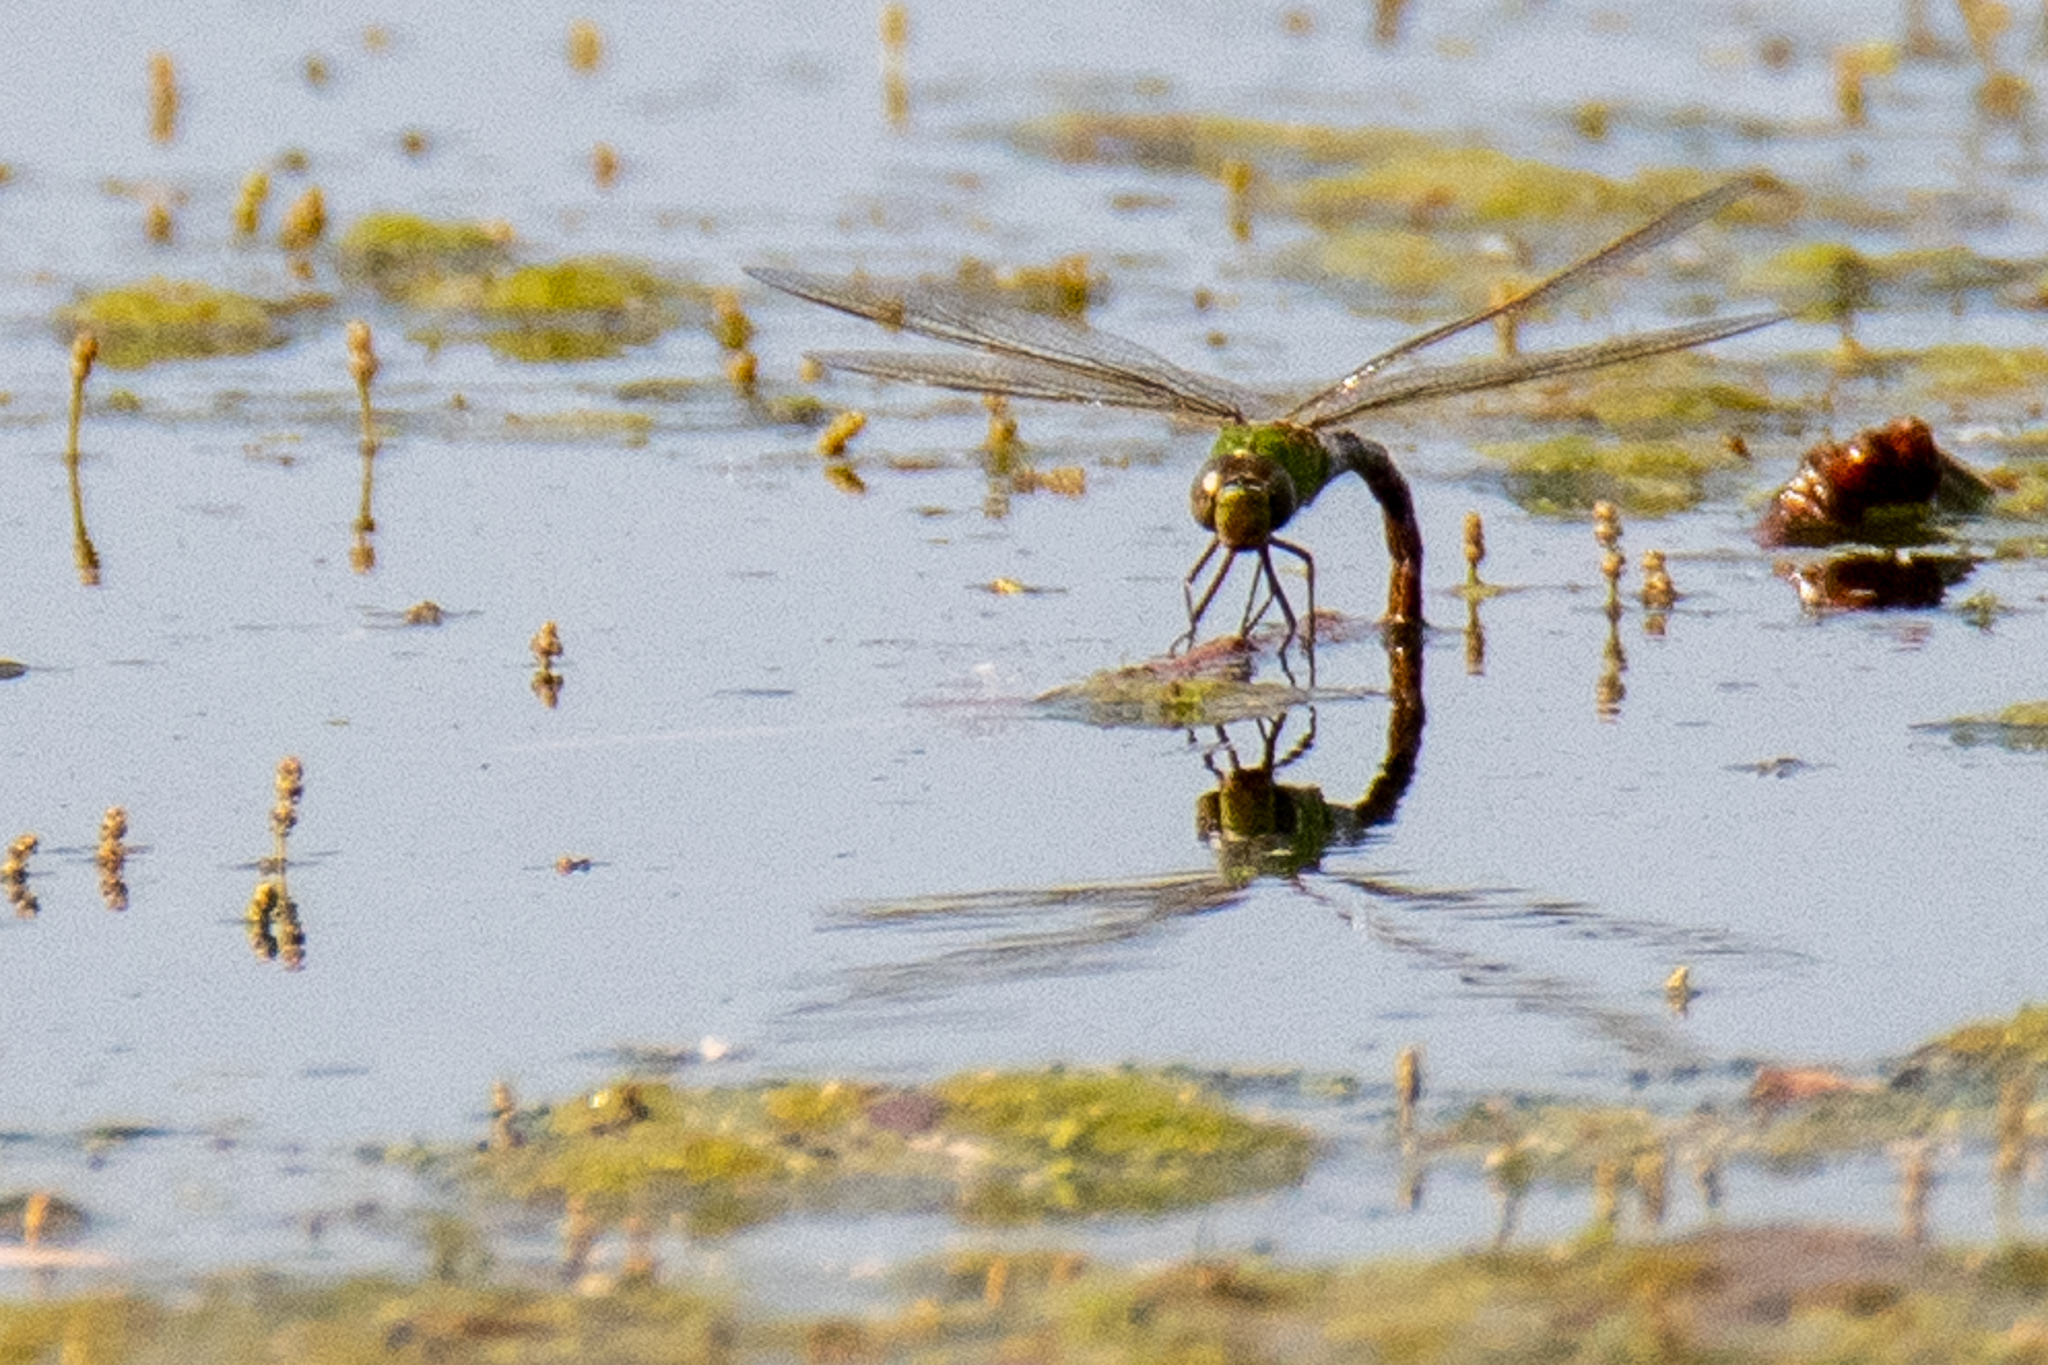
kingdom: Animalia
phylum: Arthropoda
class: Insecta
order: Odonata
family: Aeshnidae
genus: Anax
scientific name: Anax junius
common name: Common green darner
